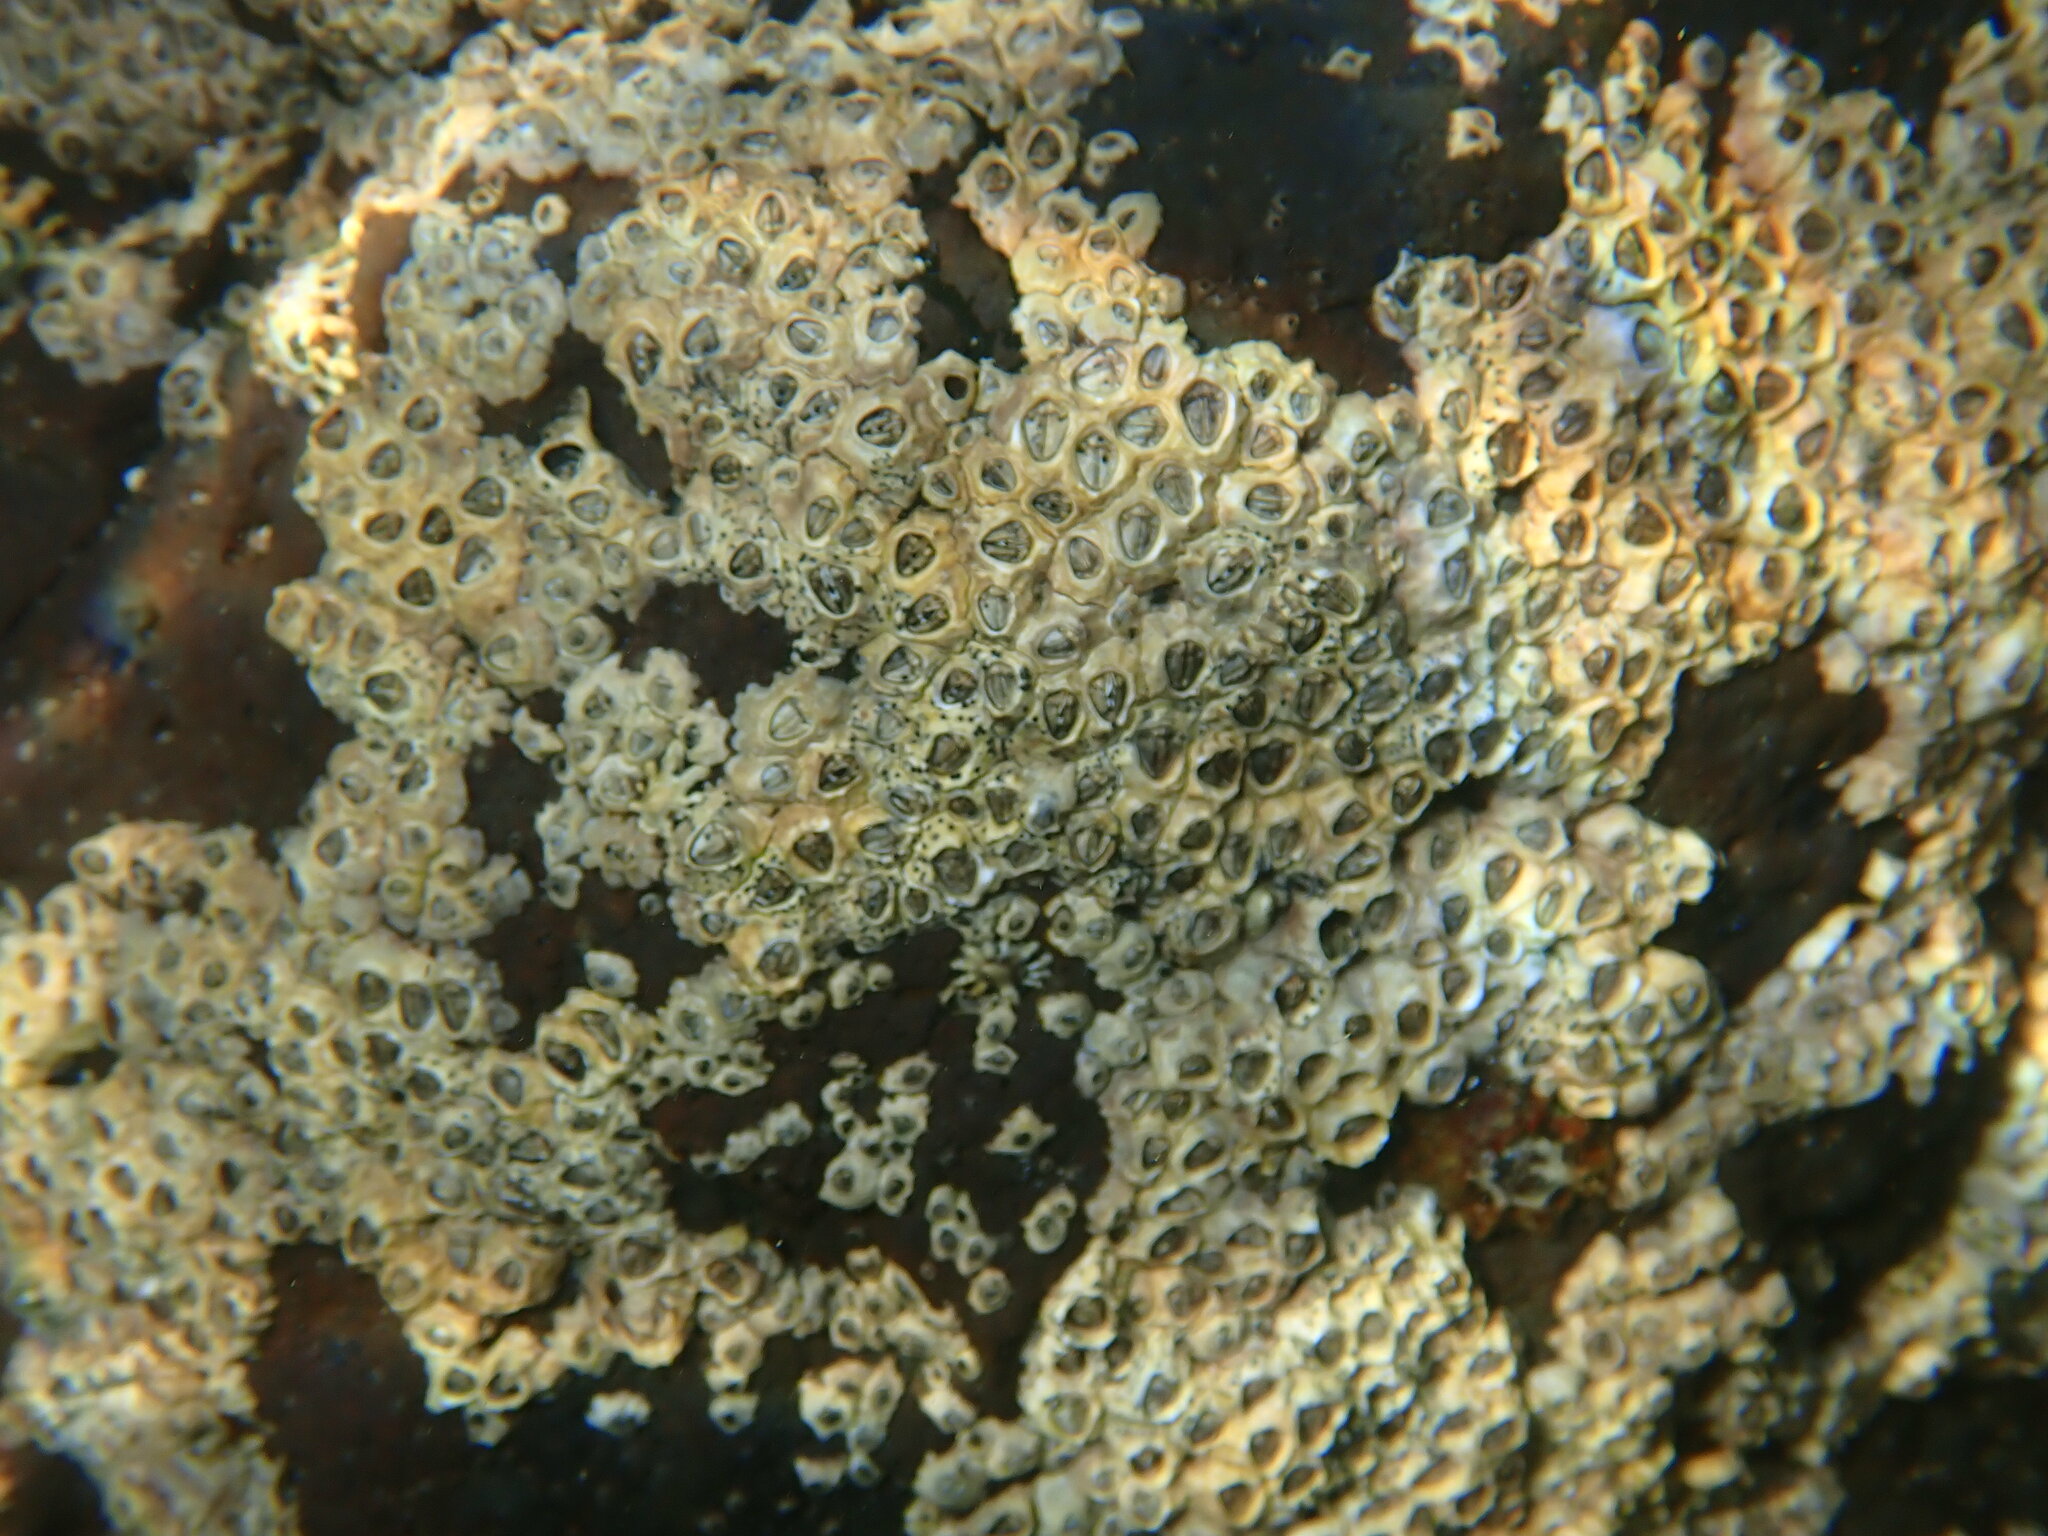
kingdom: Animalia
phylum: Arthropoda
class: Maxillopoda
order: Sessilia
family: Chthamalidae
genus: Chamaesipho
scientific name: Chamaesipho columna
